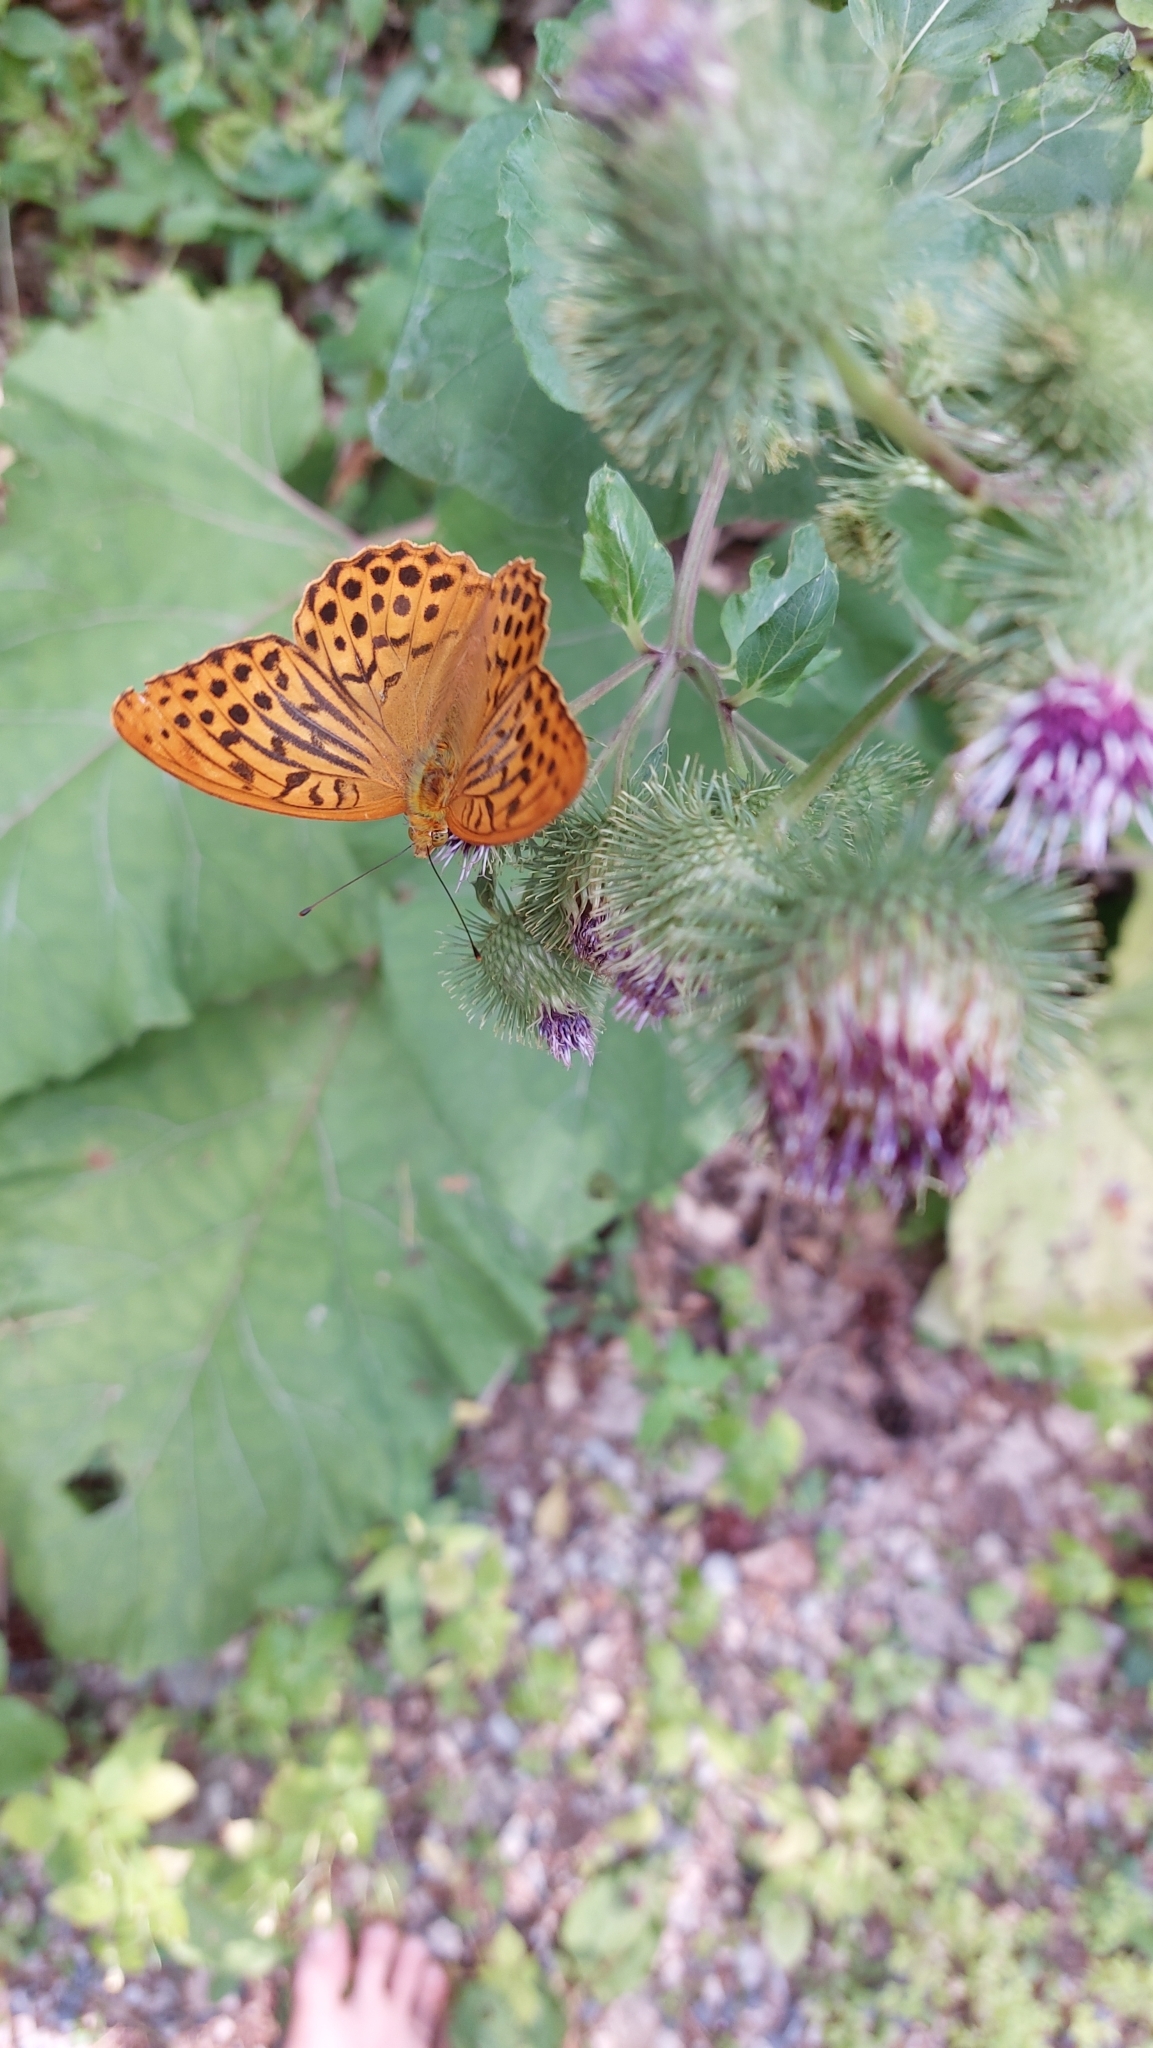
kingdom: Animalia
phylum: Arthropoda
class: Insecta
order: Lepidoptera
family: Nymphalidae
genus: Argynnis
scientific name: Argynnis paphia
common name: Silver-washed fritillary
